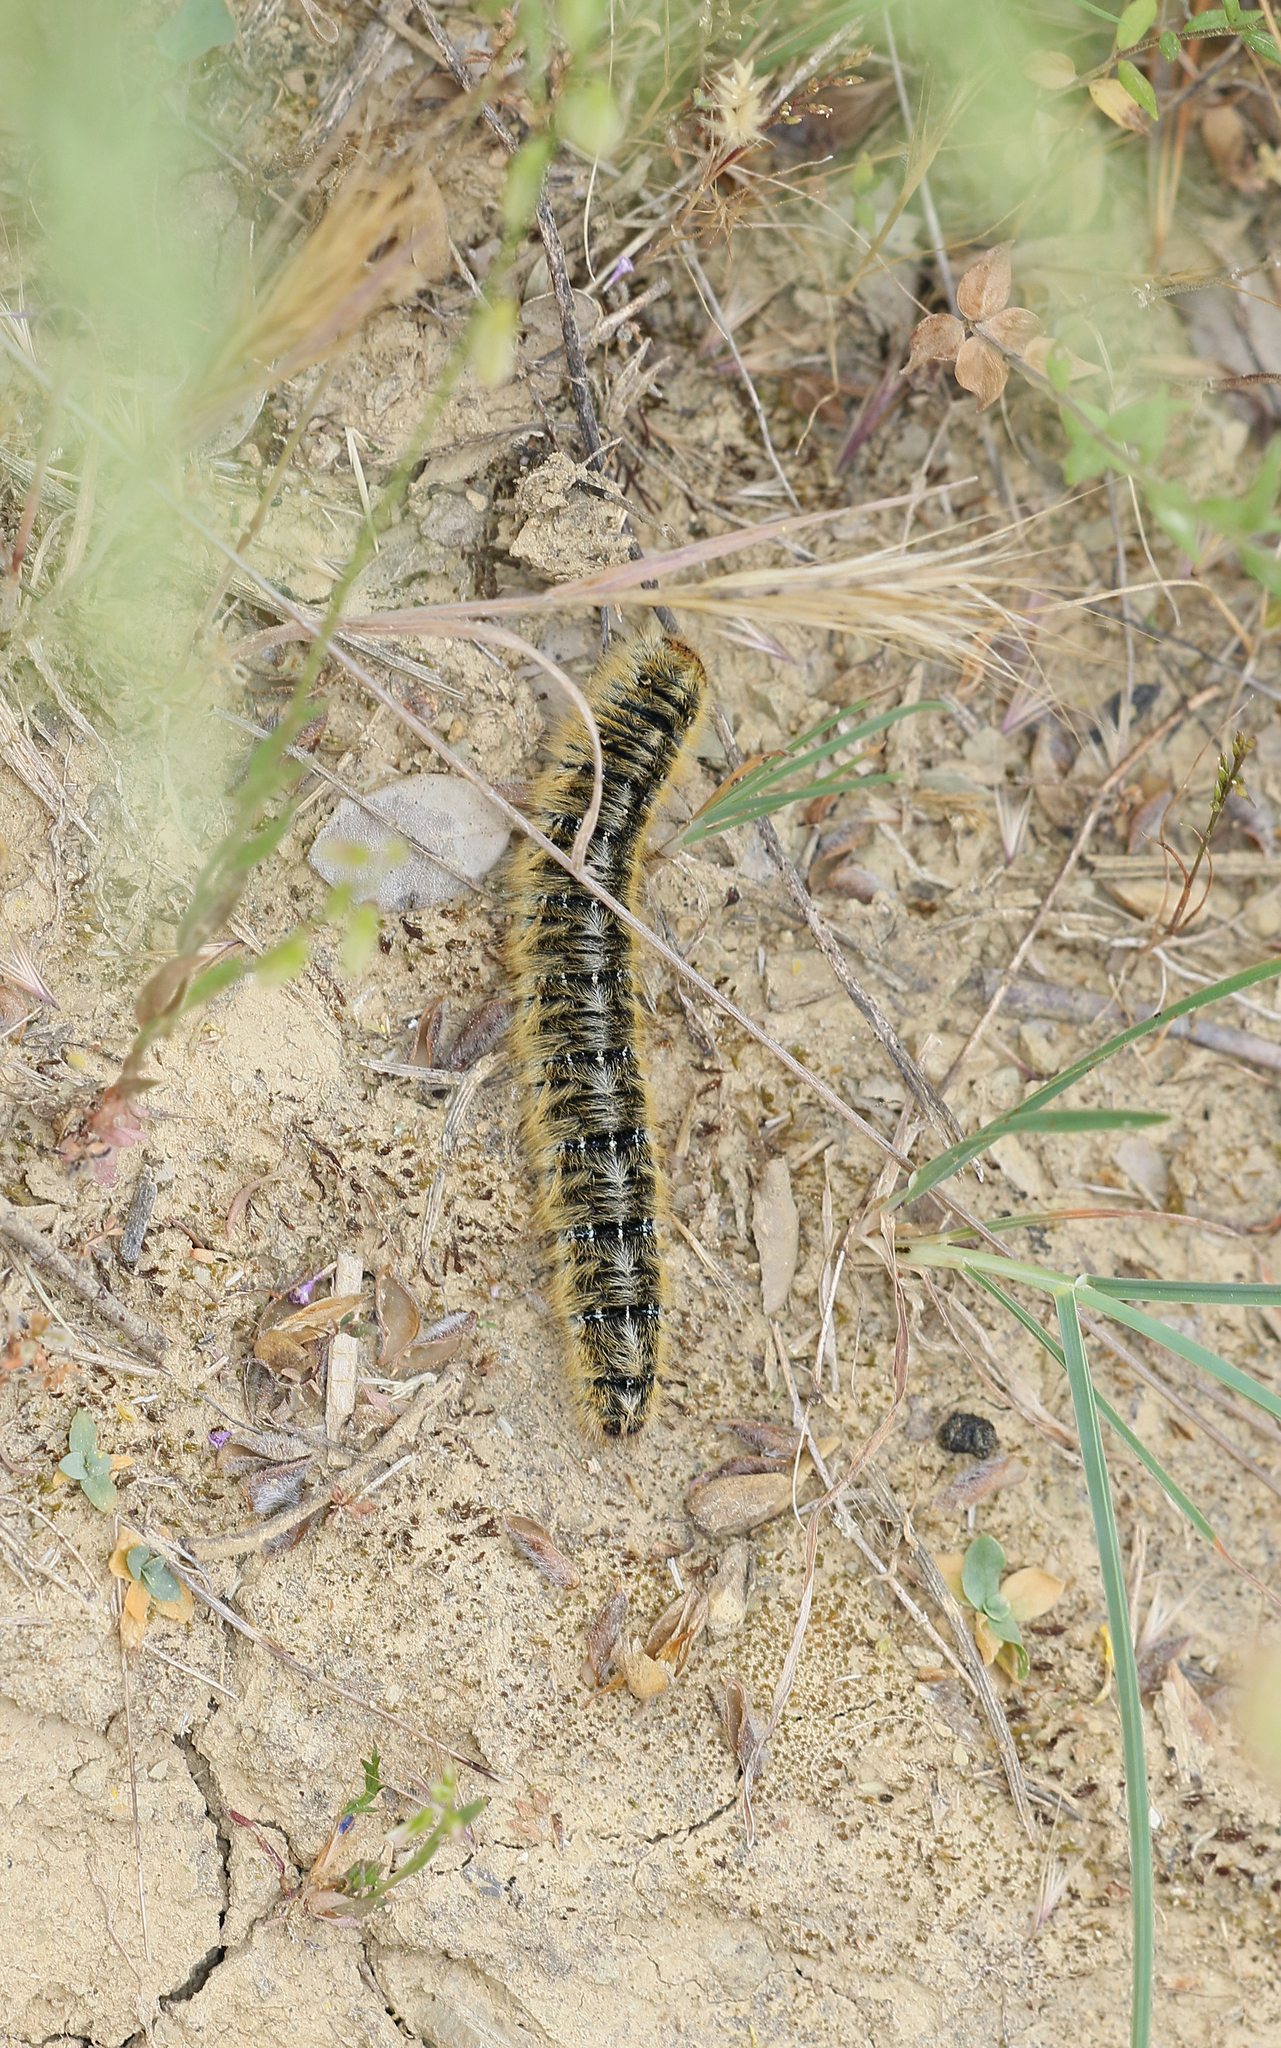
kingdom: Animalia
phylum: Arthropoda
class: Insecta
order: Lepidoptera
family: Lasiocampidae
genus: Lasiocampa
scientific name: Lasiocampa trifolii
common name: Grass eggar
